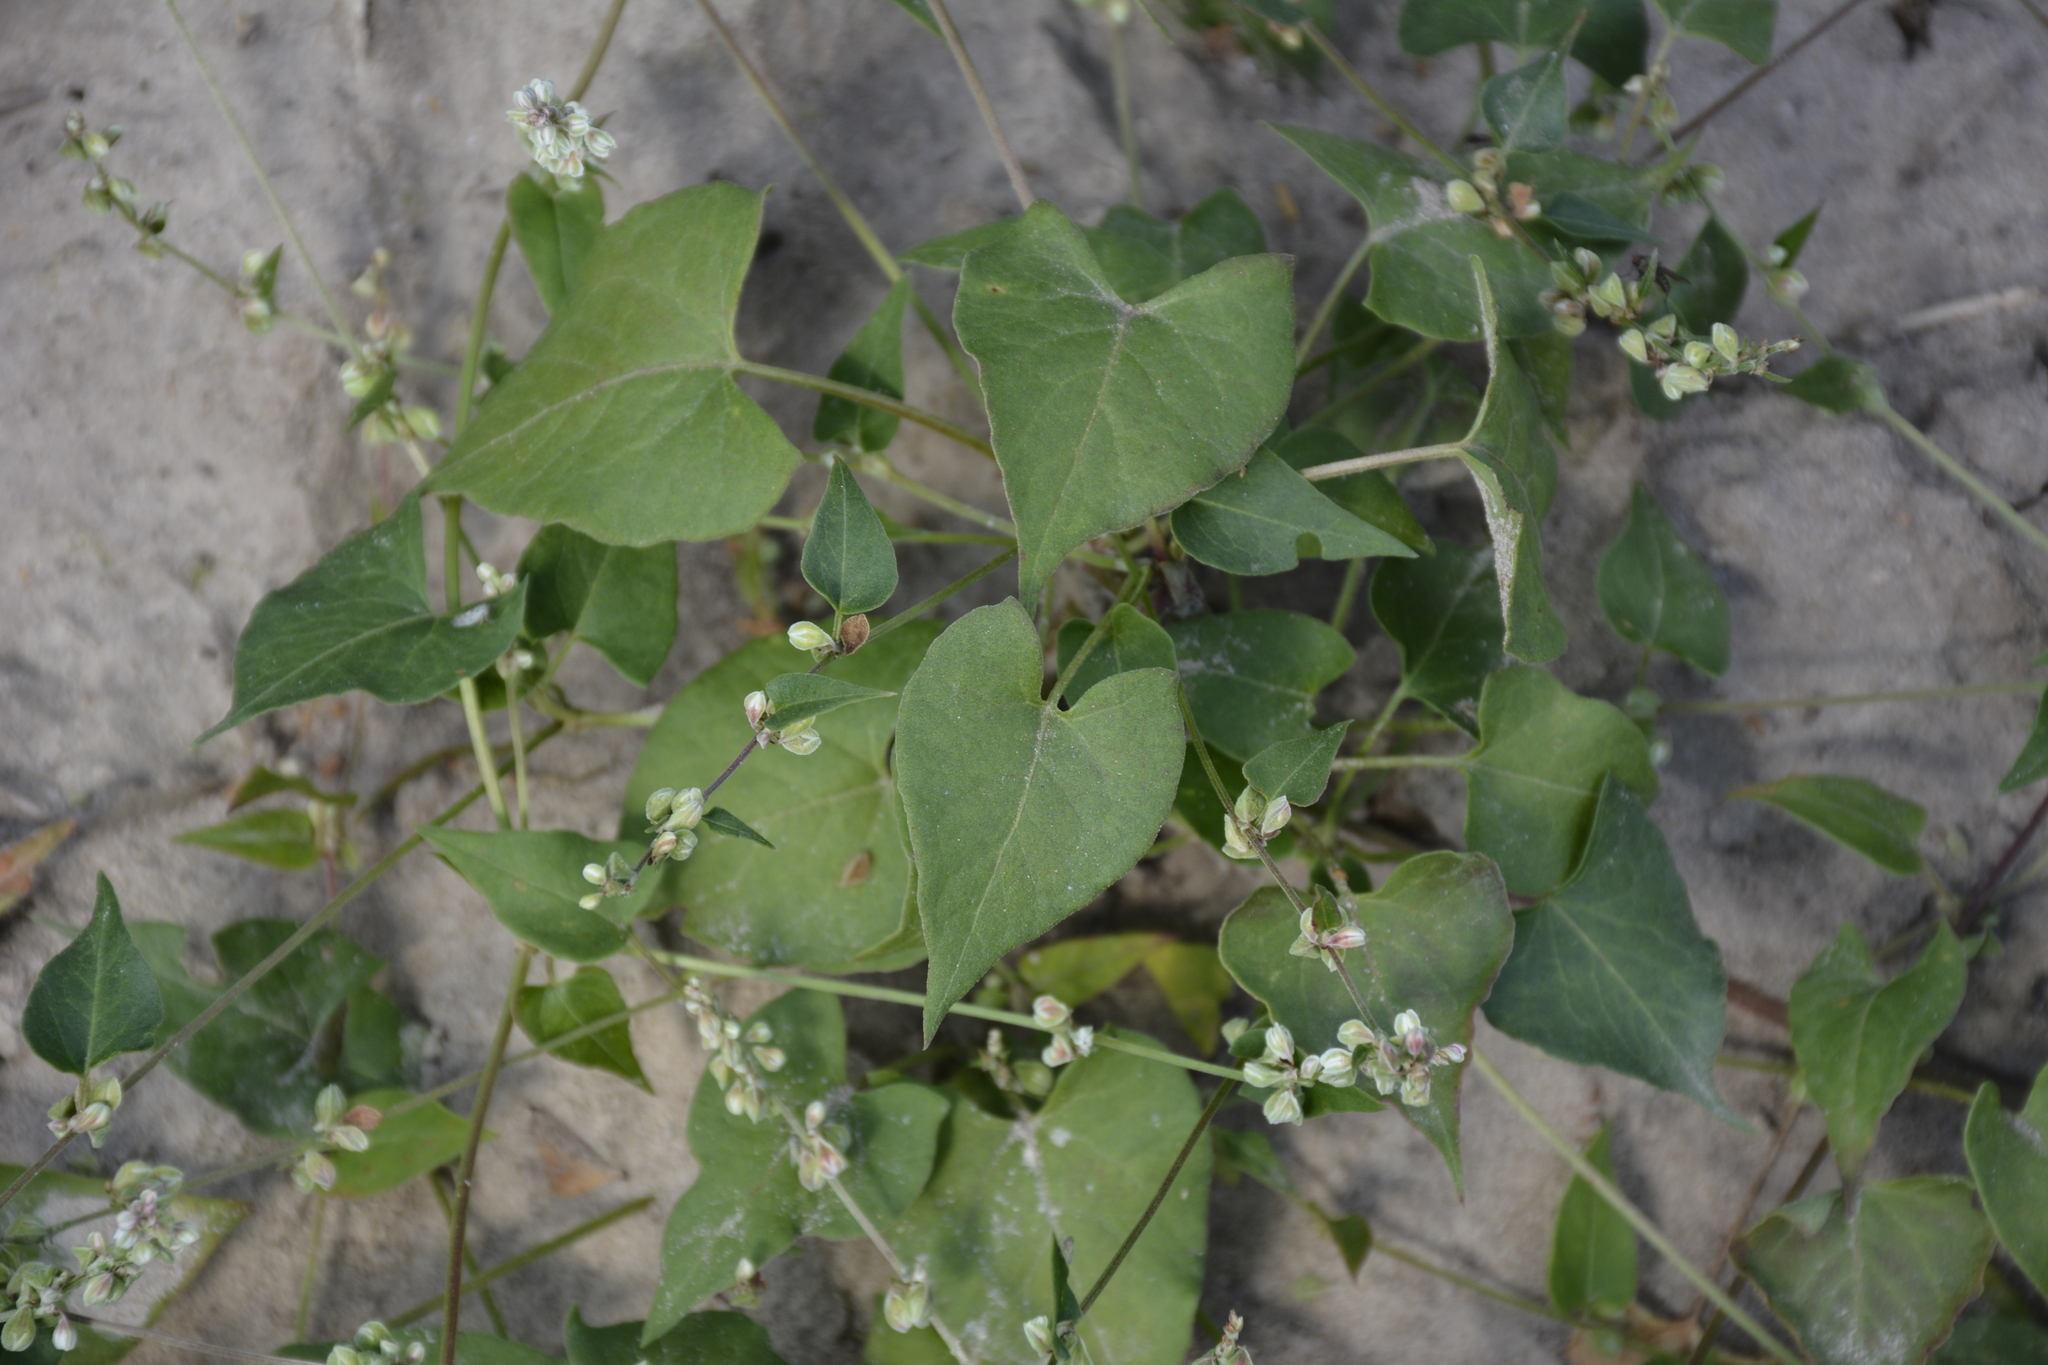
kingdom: Plantae
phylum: Tracheophyta
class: Magnoliopsida
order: Caryophyllales
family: Polygonaceae
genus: Fallopia
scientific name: Fallopia convolvulus
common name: Black bindweed
